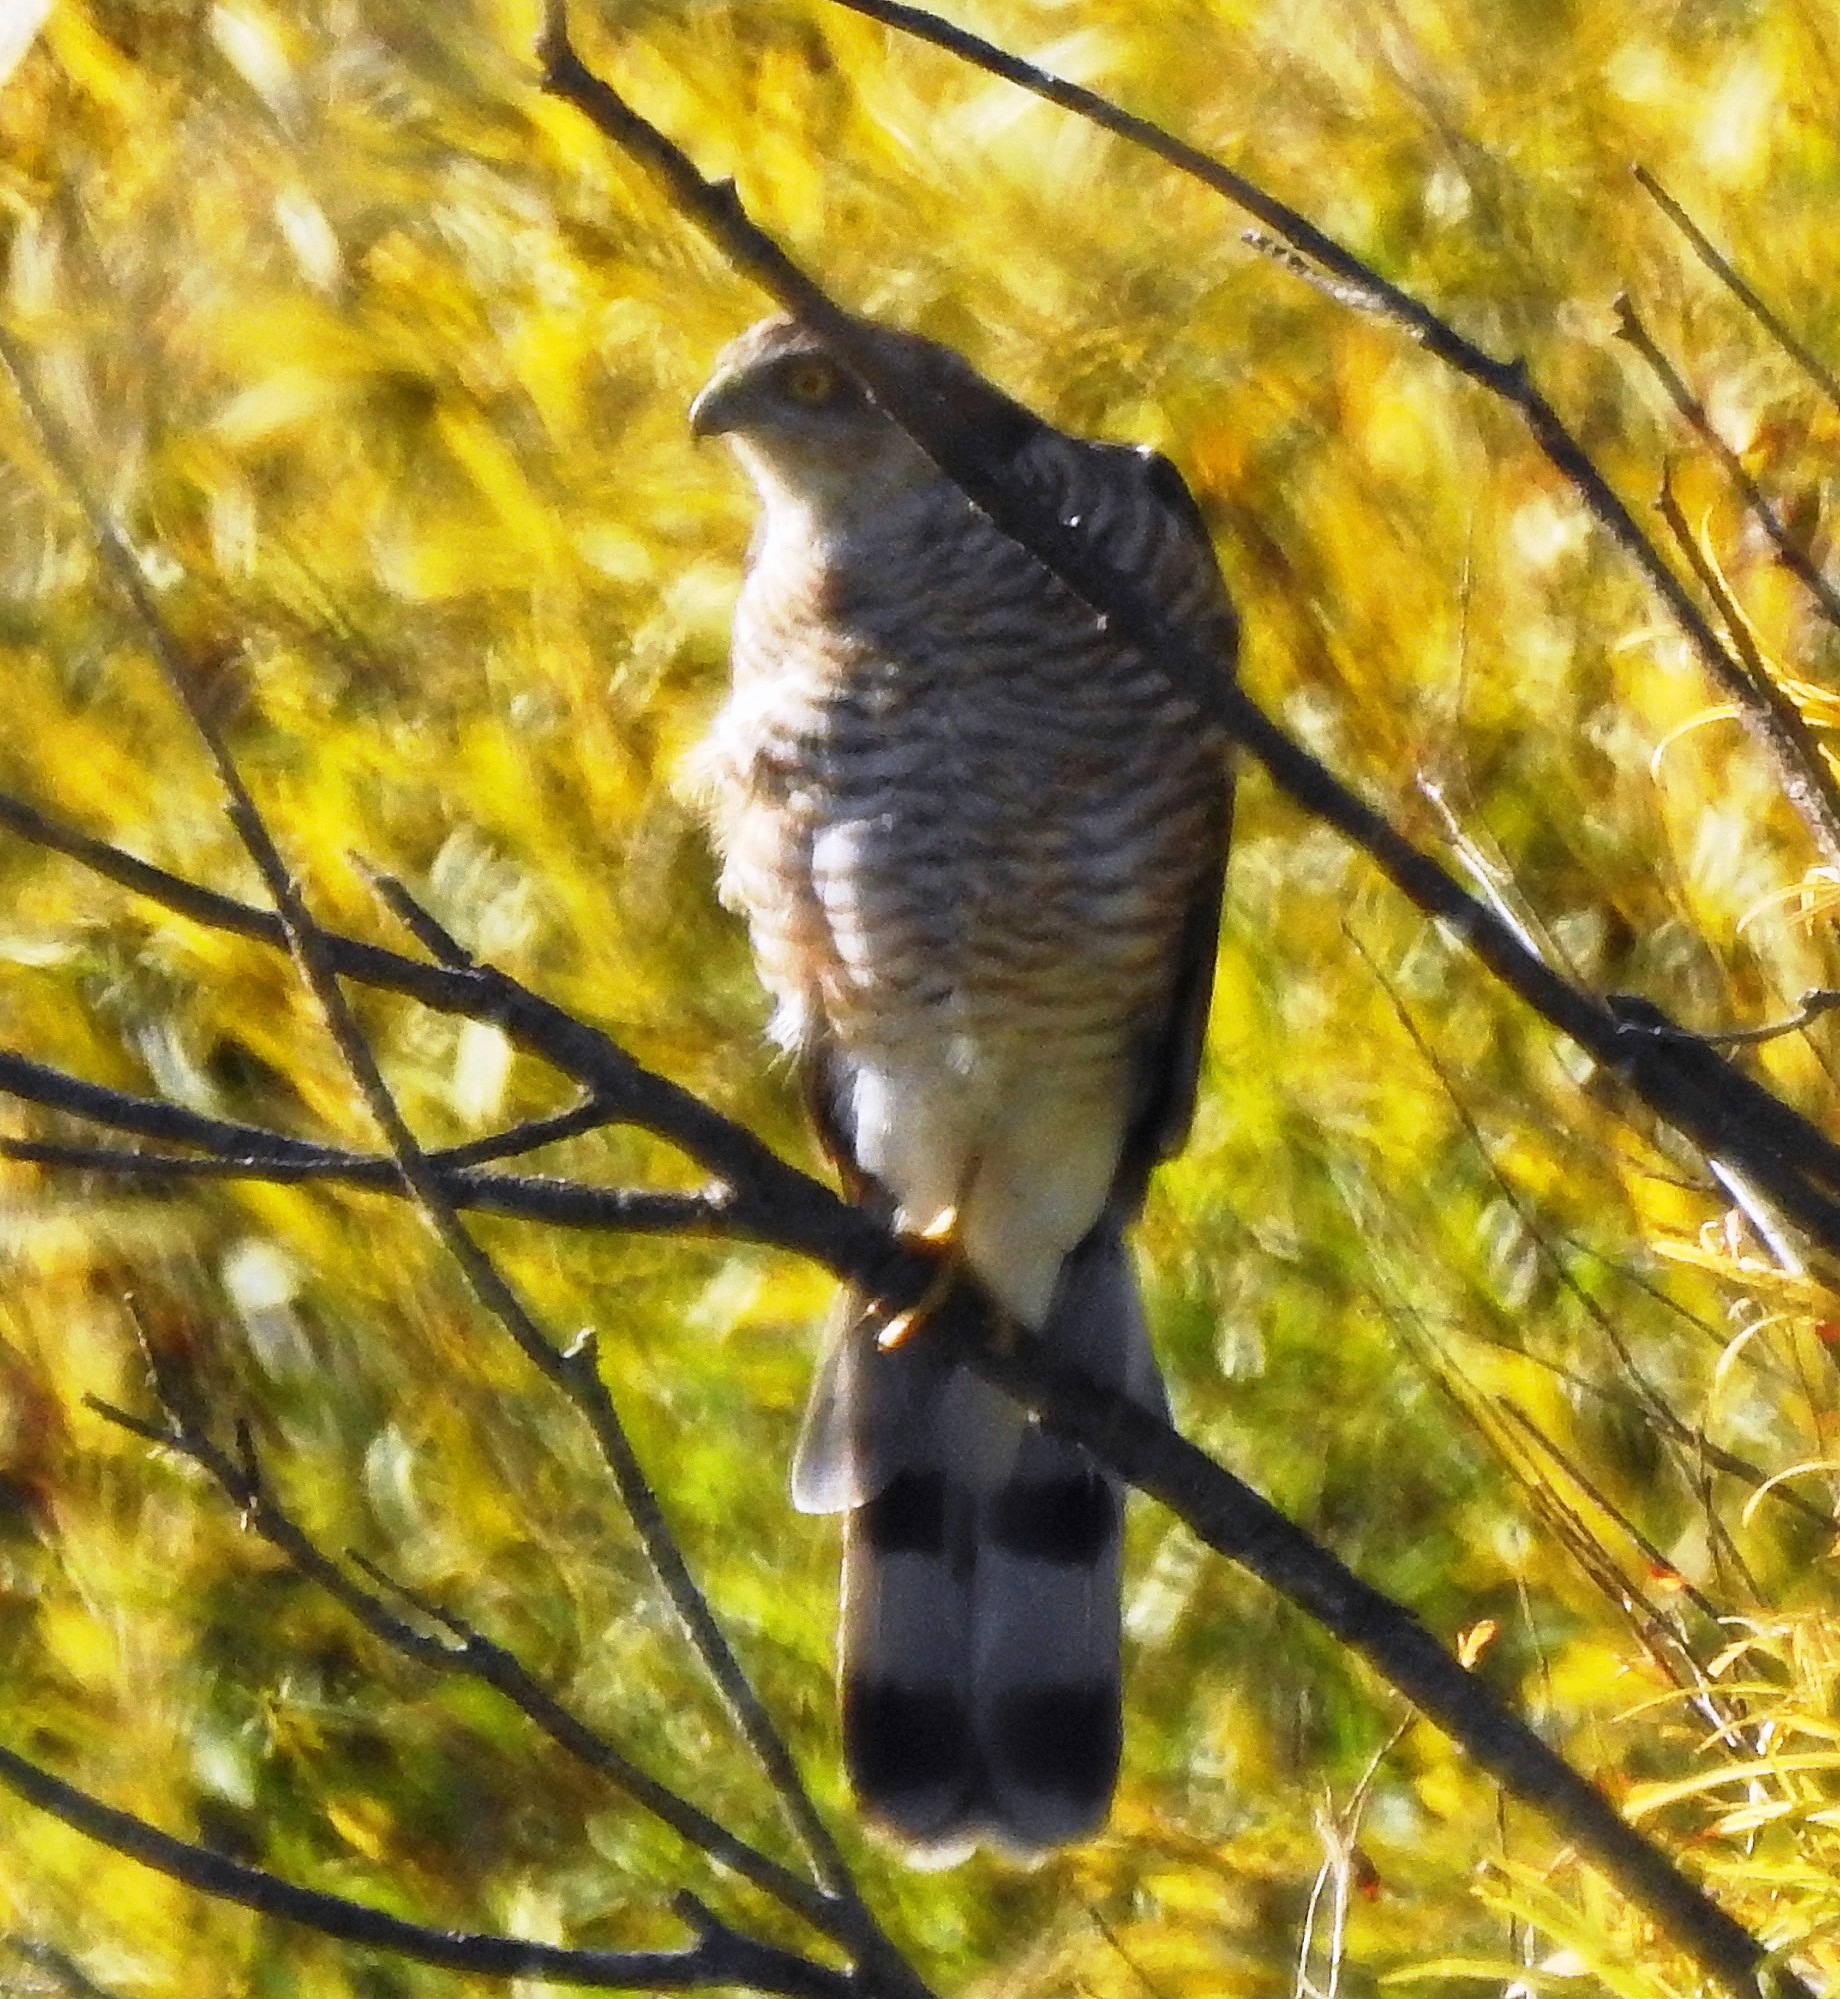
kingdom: Animalia
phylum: Chordata
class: Aves
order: Accipitriformes
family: Accipitridae
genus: Accipiter
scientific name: Accipiter nisus
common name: Eurasian sparrowhawk
